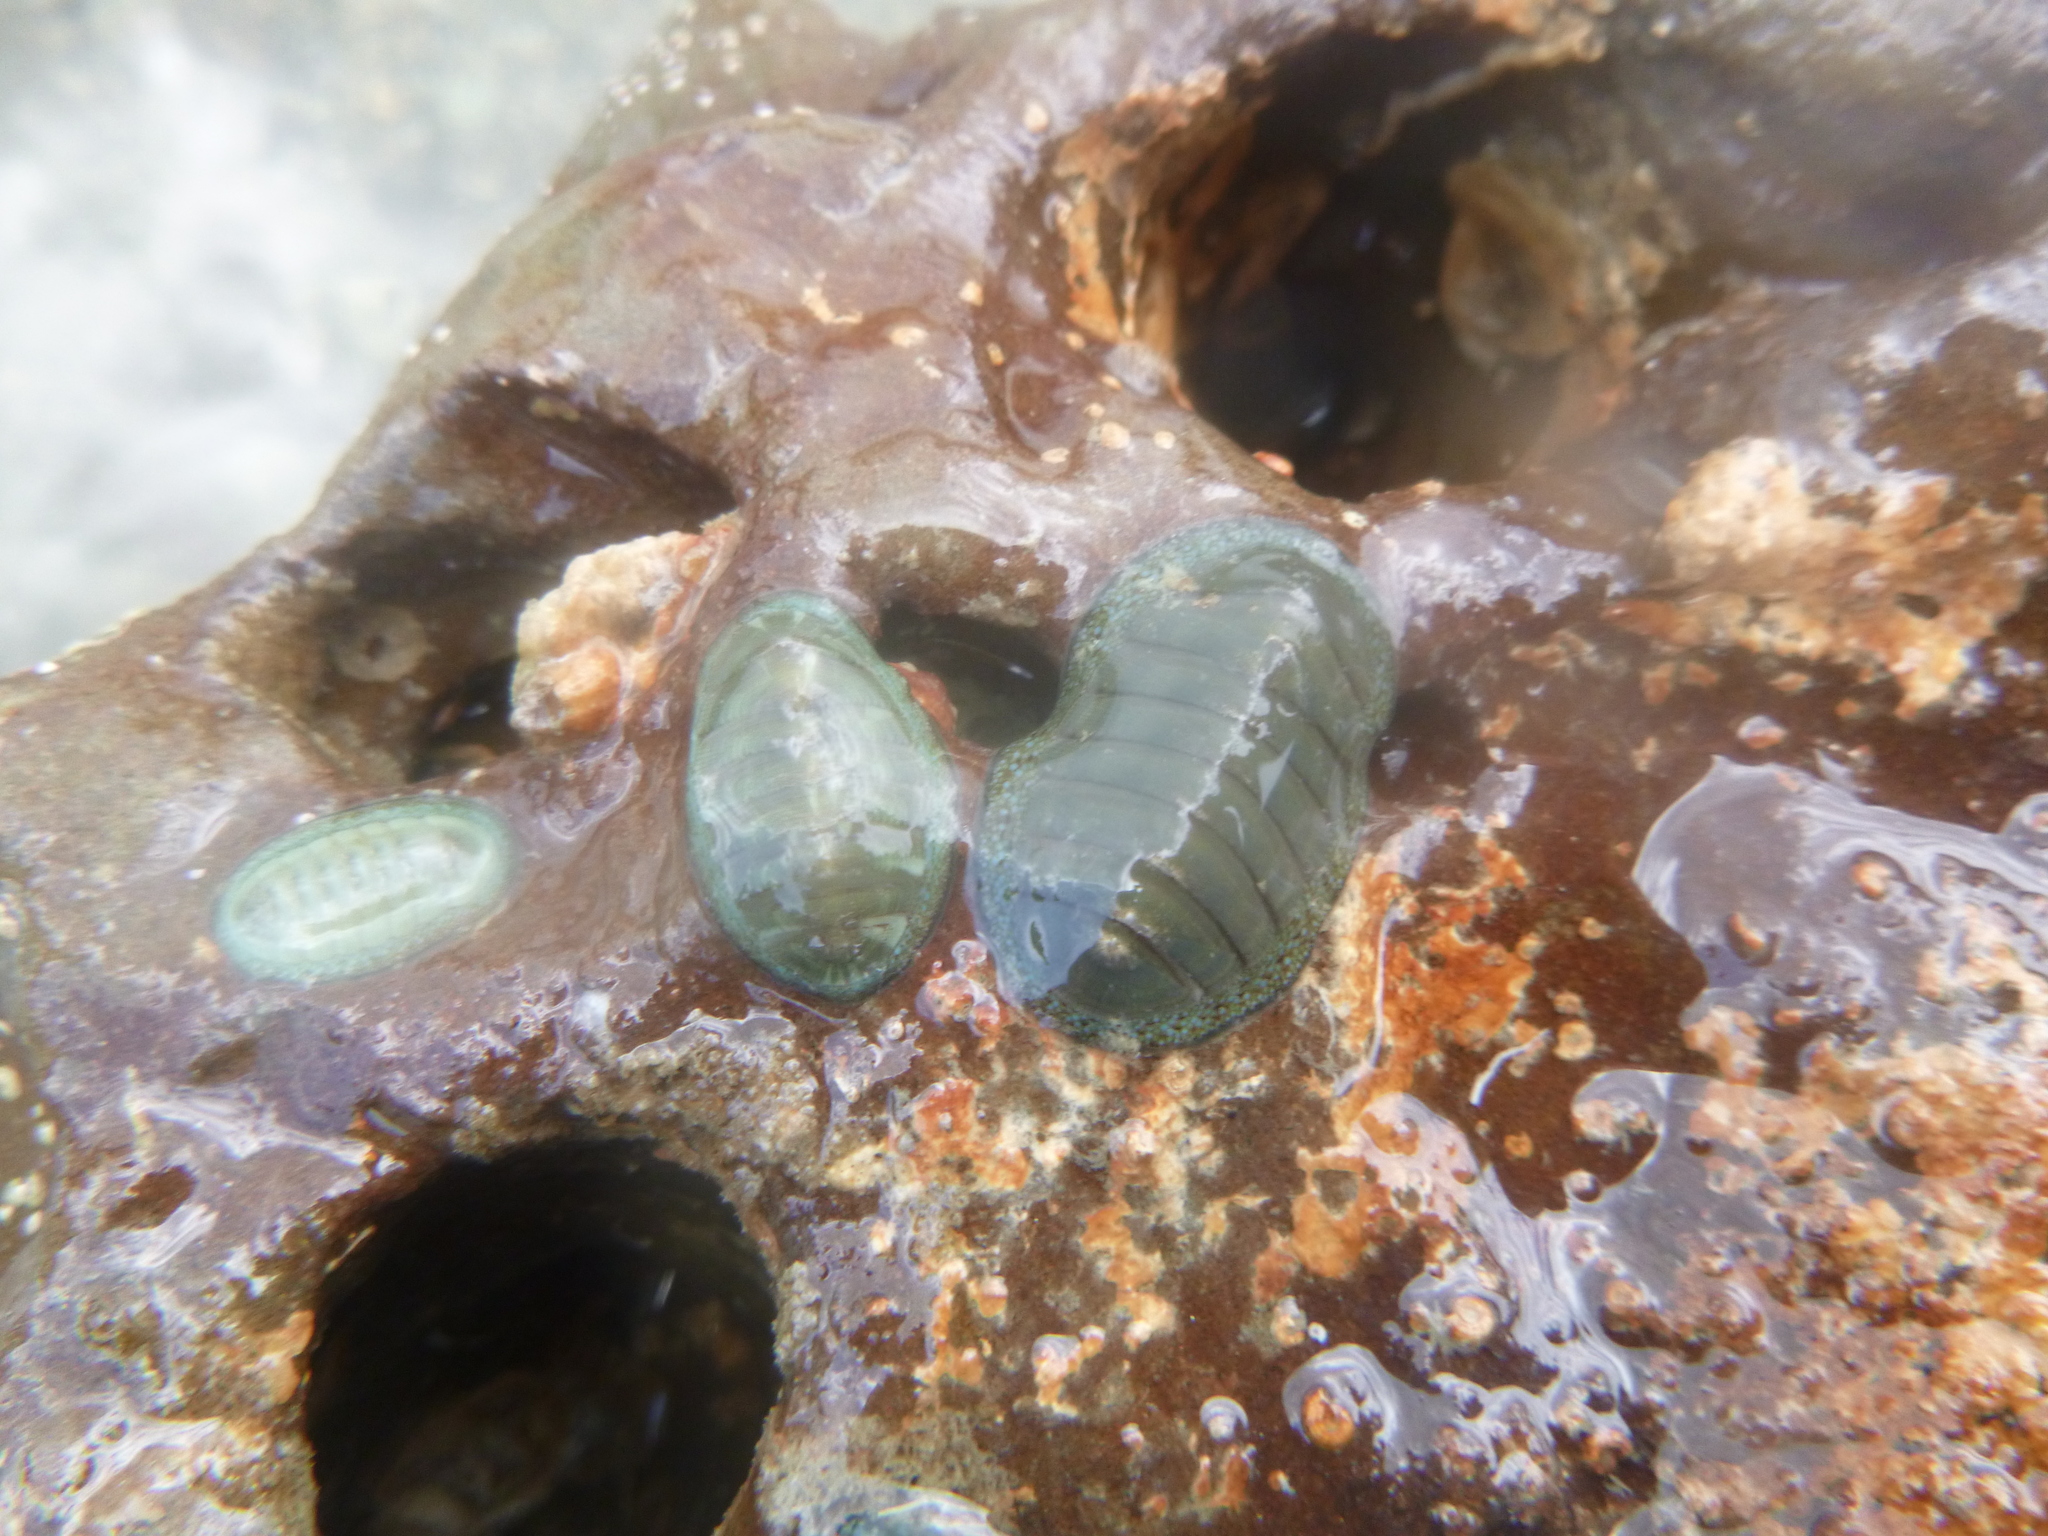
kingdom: Animalia
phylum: Mollusca
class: Polyplacophora
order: Chitonida
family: Chitonidae
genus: Chiton
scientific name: Chiton glaucus
